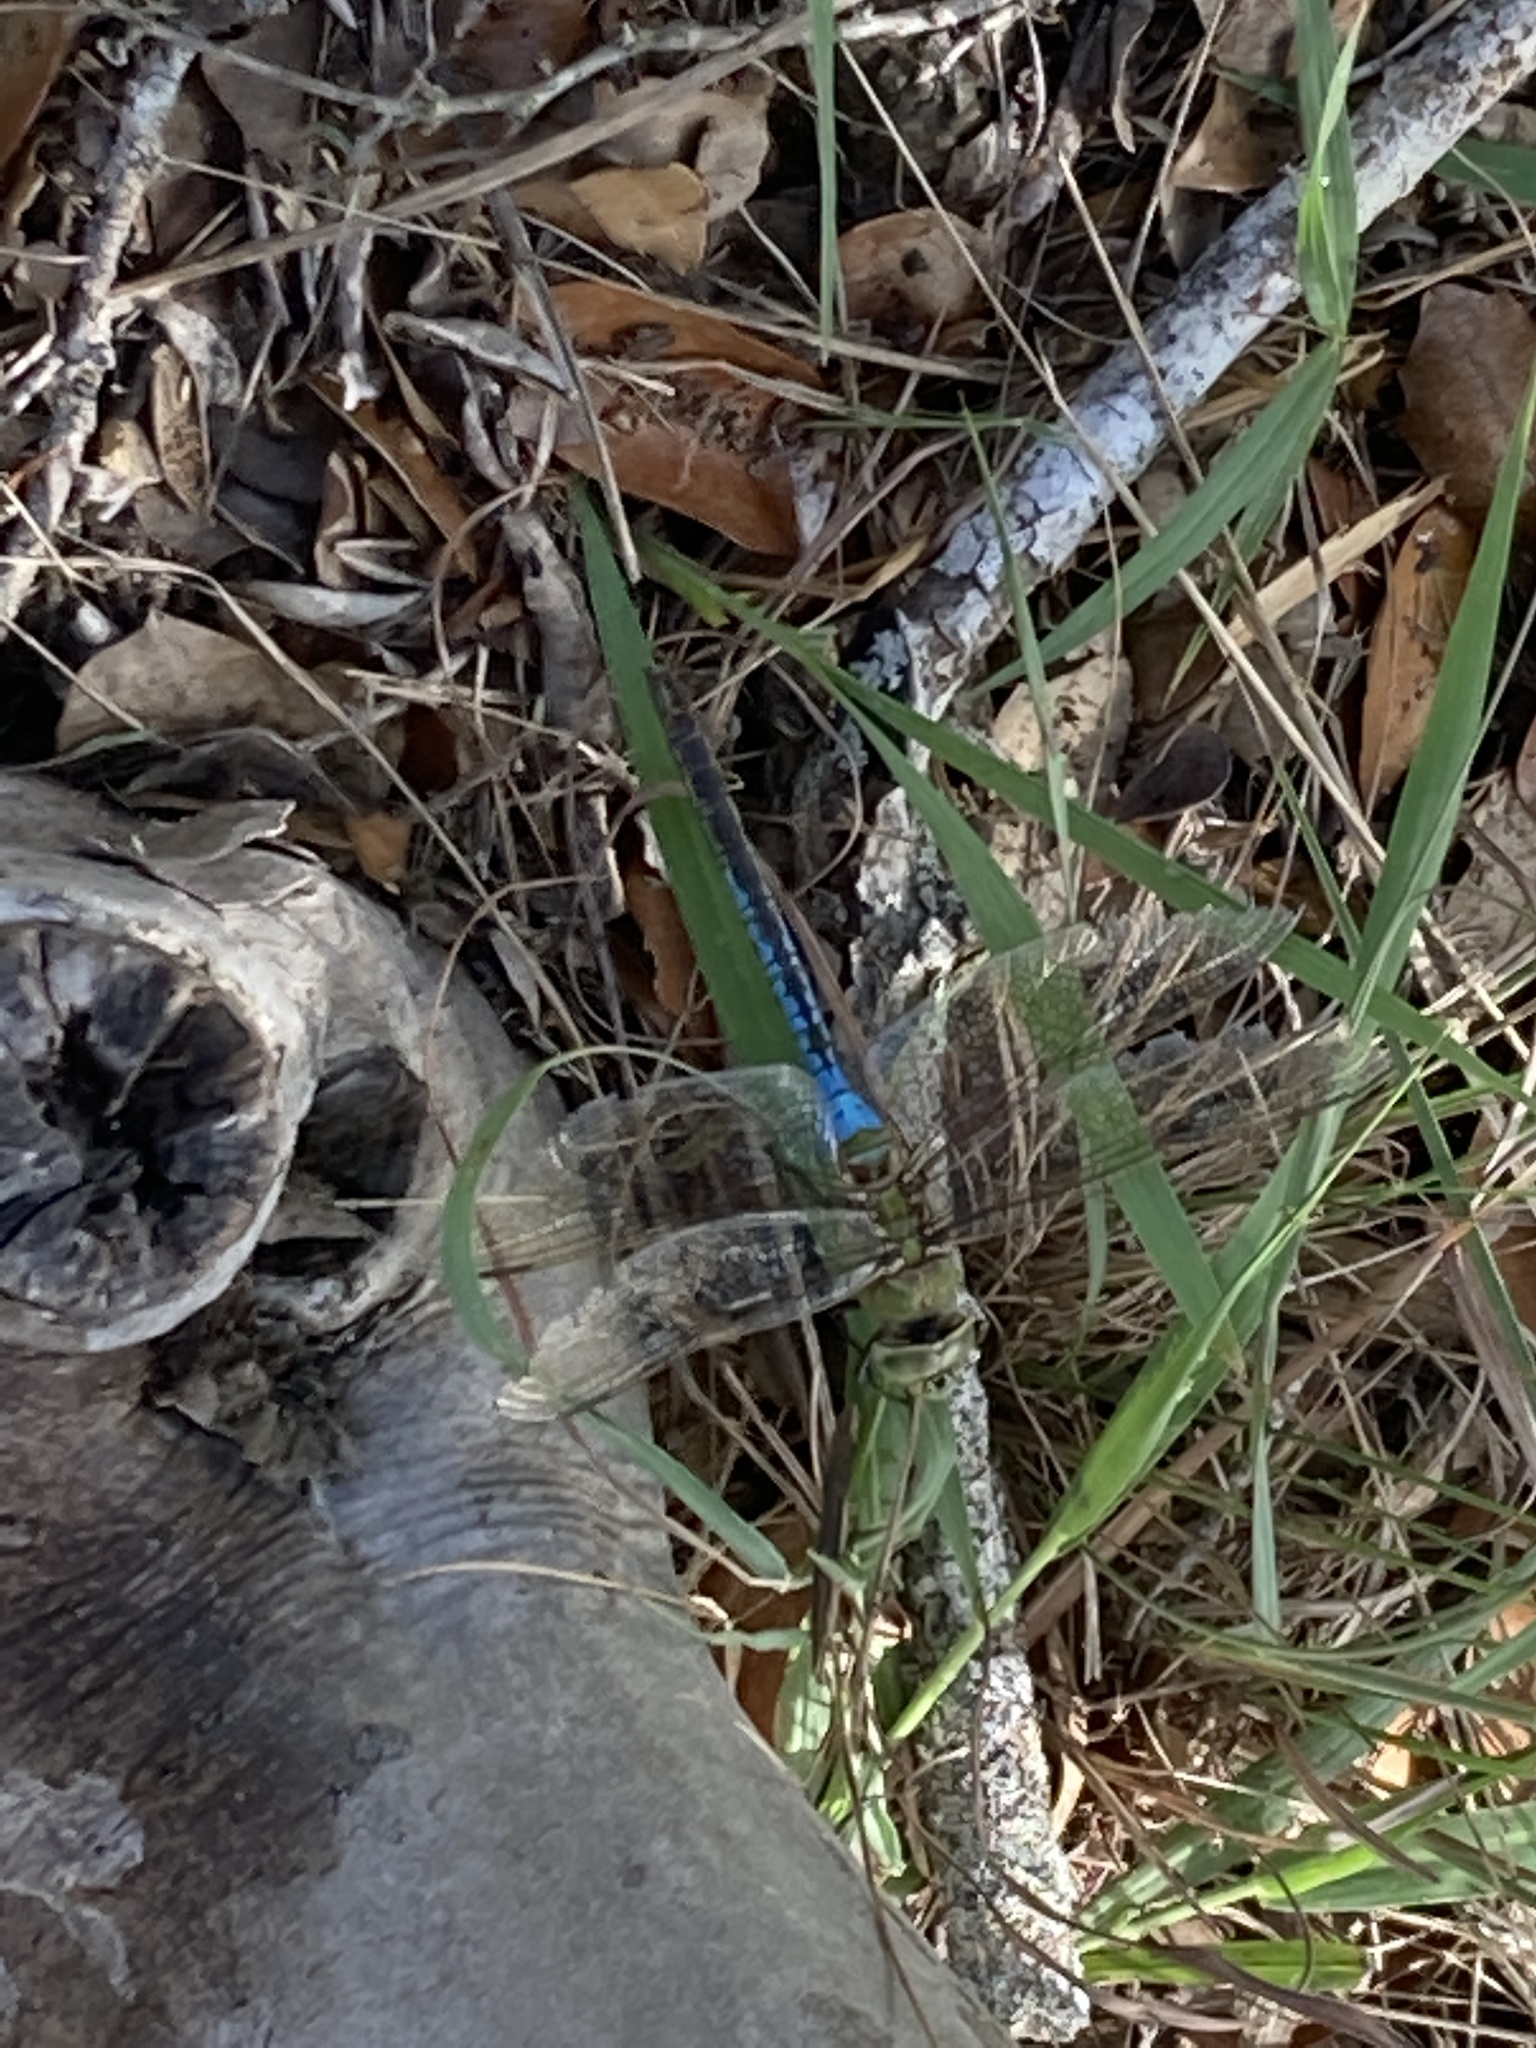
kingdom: Animalia
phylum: Arthropoda
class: Insecta
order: Odonata
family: Aeshnidae
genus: Anax
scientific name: Anax junius
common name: Common green darner
